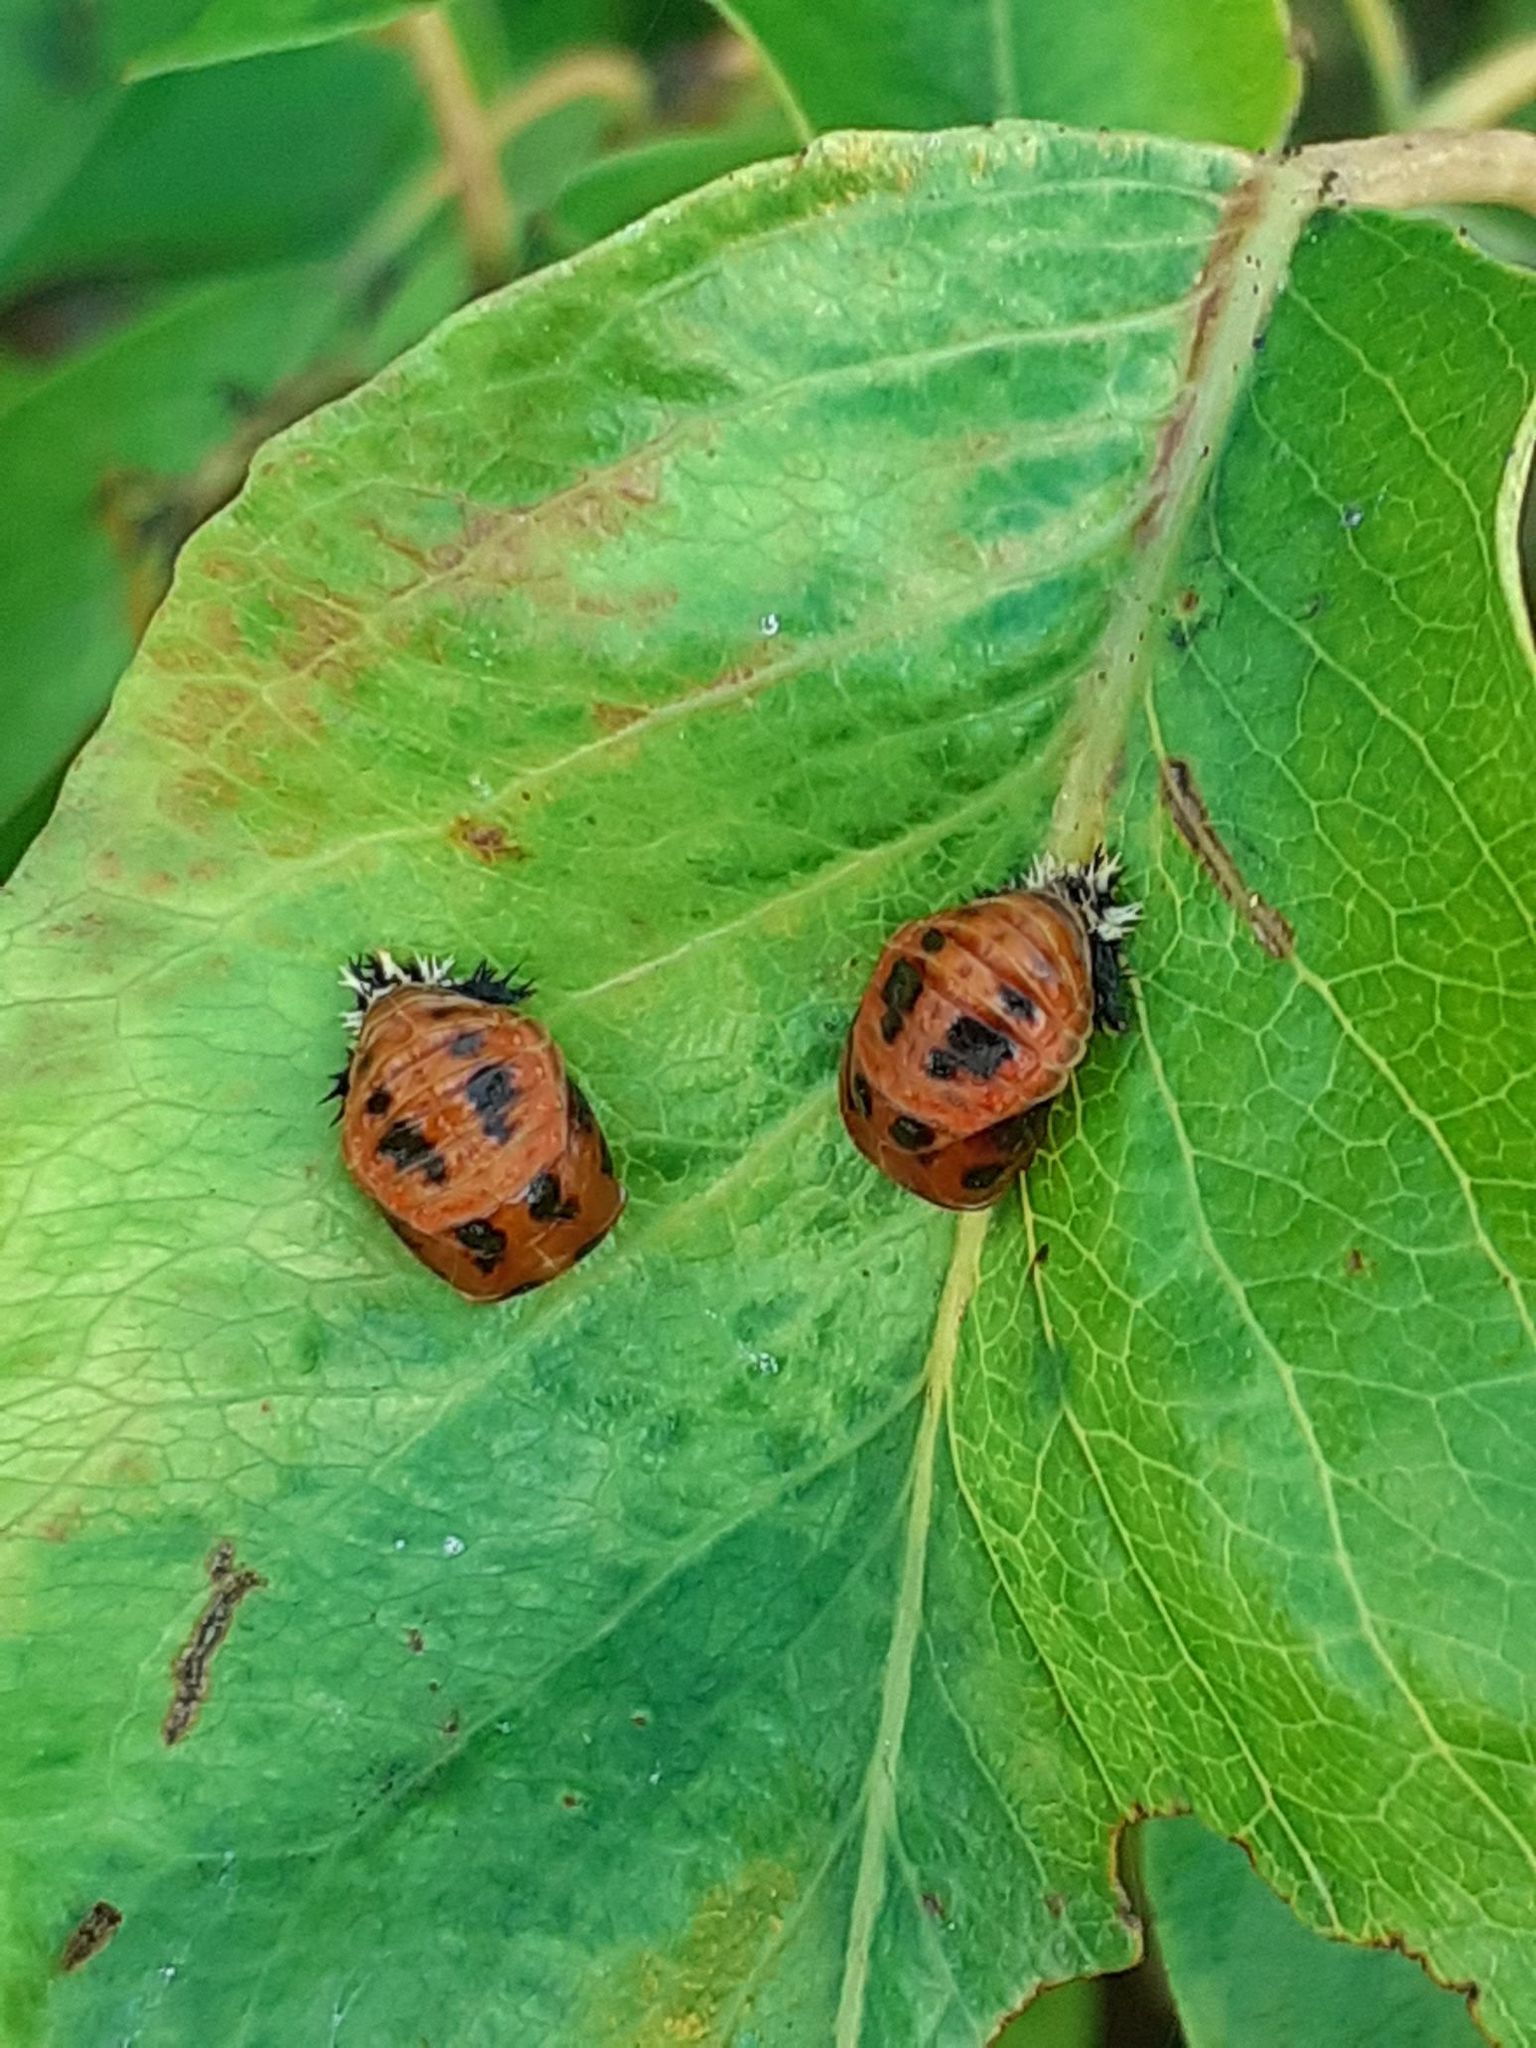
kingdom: Animalia
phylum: Arthropoda
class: Insecta
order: Coleoptera
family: Coccinellidae
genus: Harmonia
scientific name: Harmonia axyridis
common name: Harlequin ladybird
